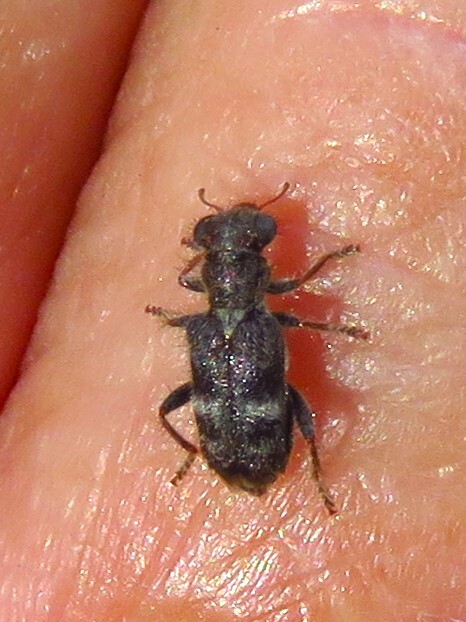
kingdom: Animalia
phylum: Arthropoda
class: Insecta
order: Coleoptera
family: Cleridae
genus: Phyllobaenus
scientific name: Phyllobaenus subfasciatus
